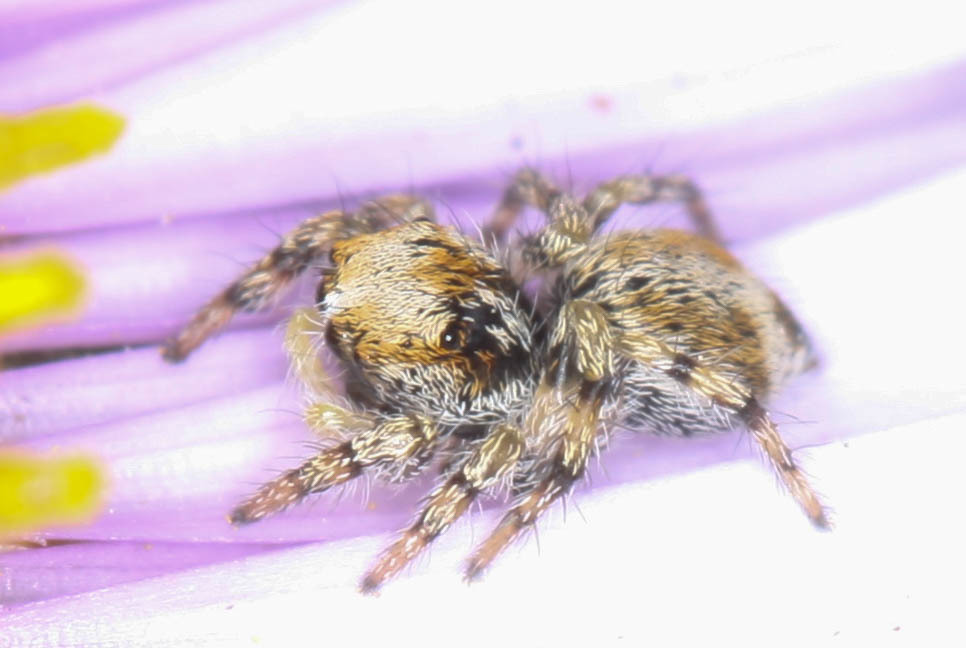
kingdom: Animalia
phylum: Arthropoda
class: Arachnida
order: Araneae
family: Salticidae
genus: Habronattus
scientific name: Habronattus amicus
